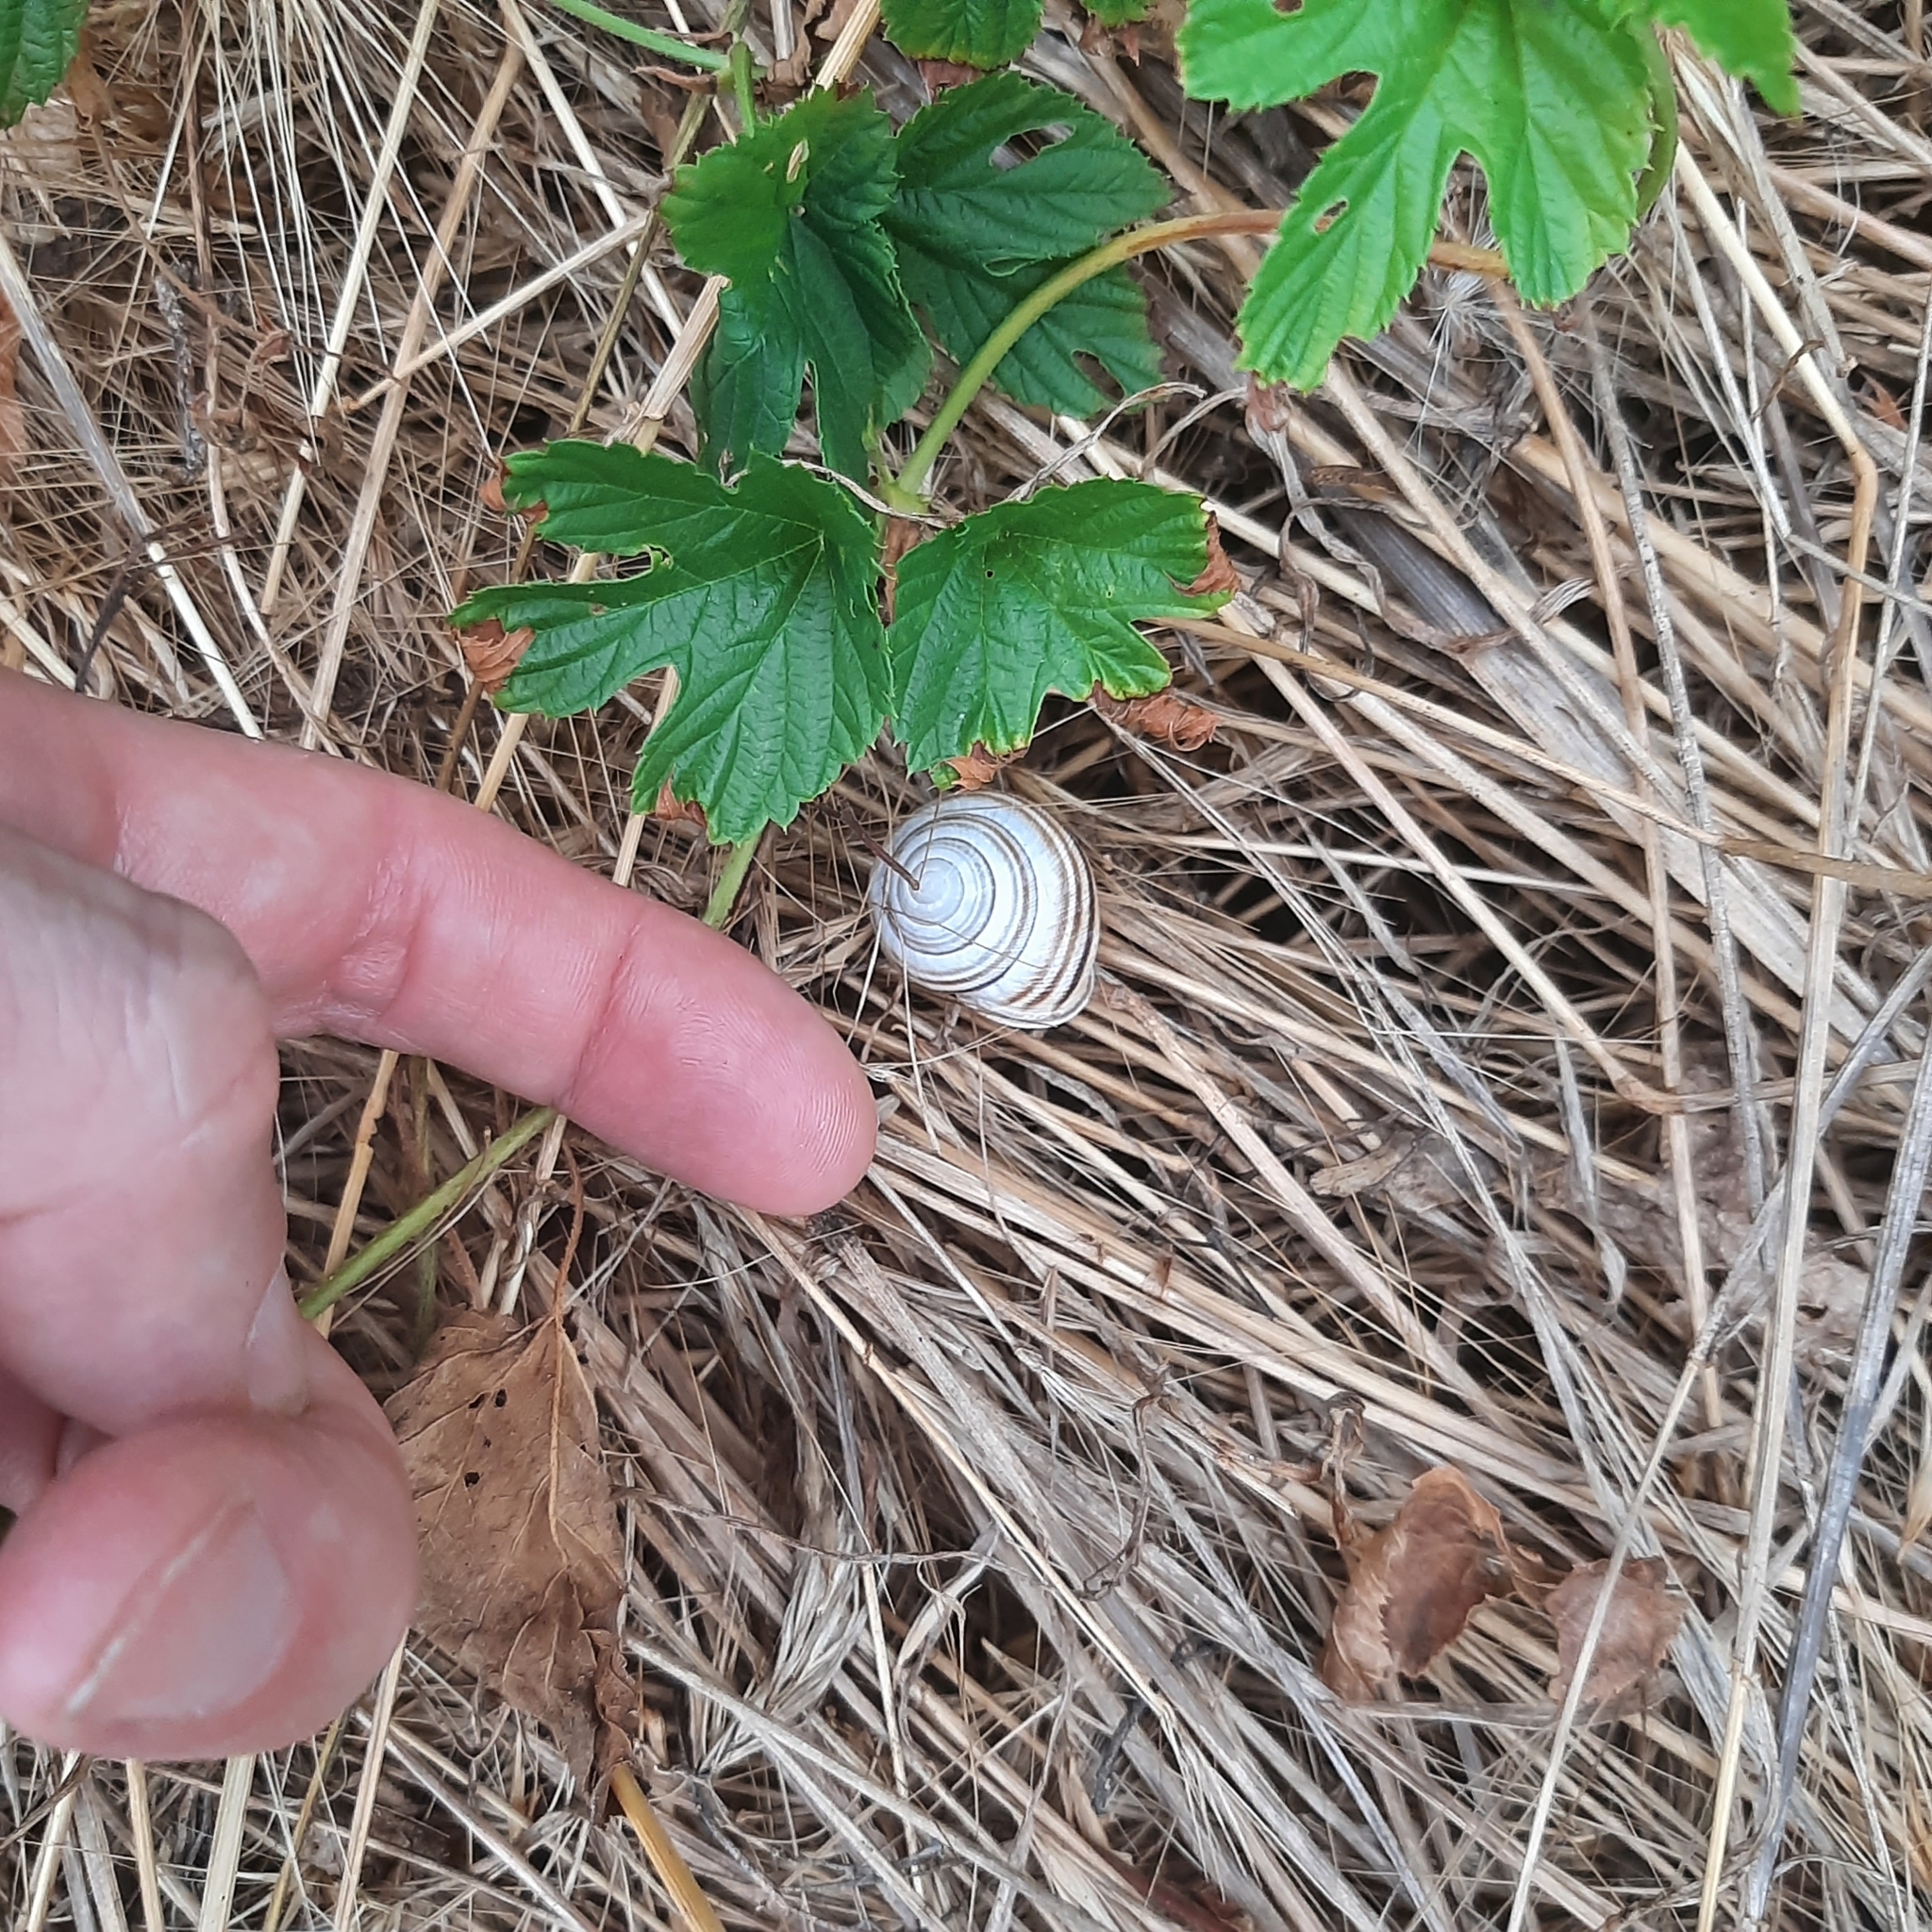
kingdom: Animalia
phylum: Mollusca
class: Gastropoda
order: Stylommatophora
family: Helicidae
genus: Caucasotachea
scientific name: Caucasotachea vindobonensis
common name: European helicid land snail
